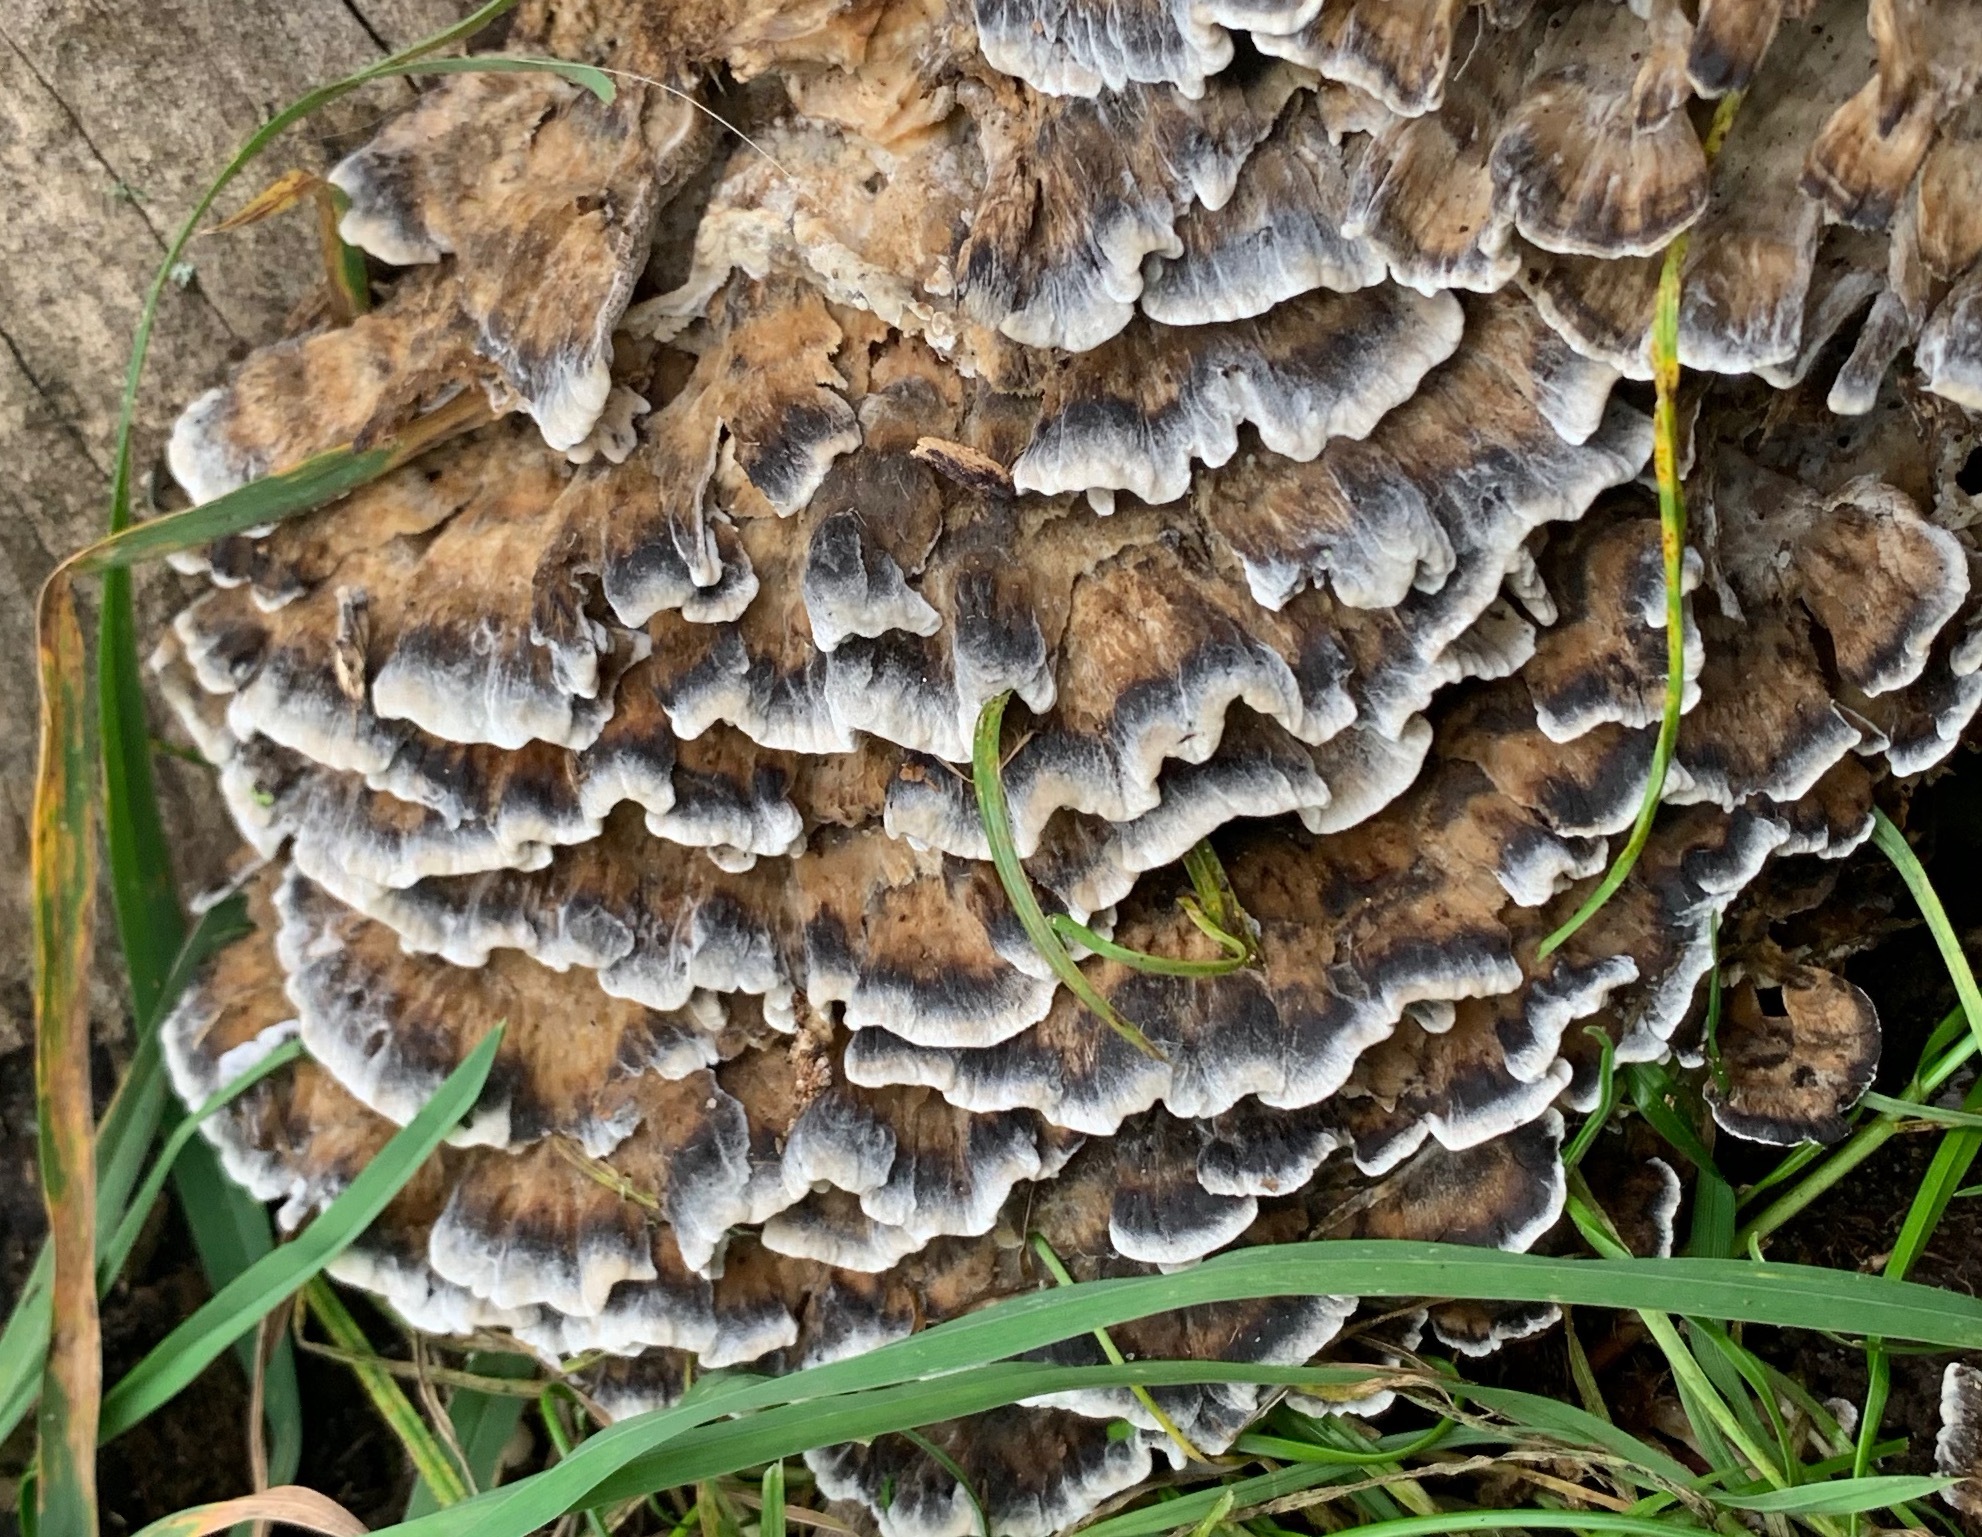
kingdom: Fungi
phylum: Basidiomycota
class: Agaricomycetes
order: Polyporales
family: Phanerochaetaceae
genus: Bjerkandera
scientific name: Bjerkandera adusta
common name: Smoky bracket
